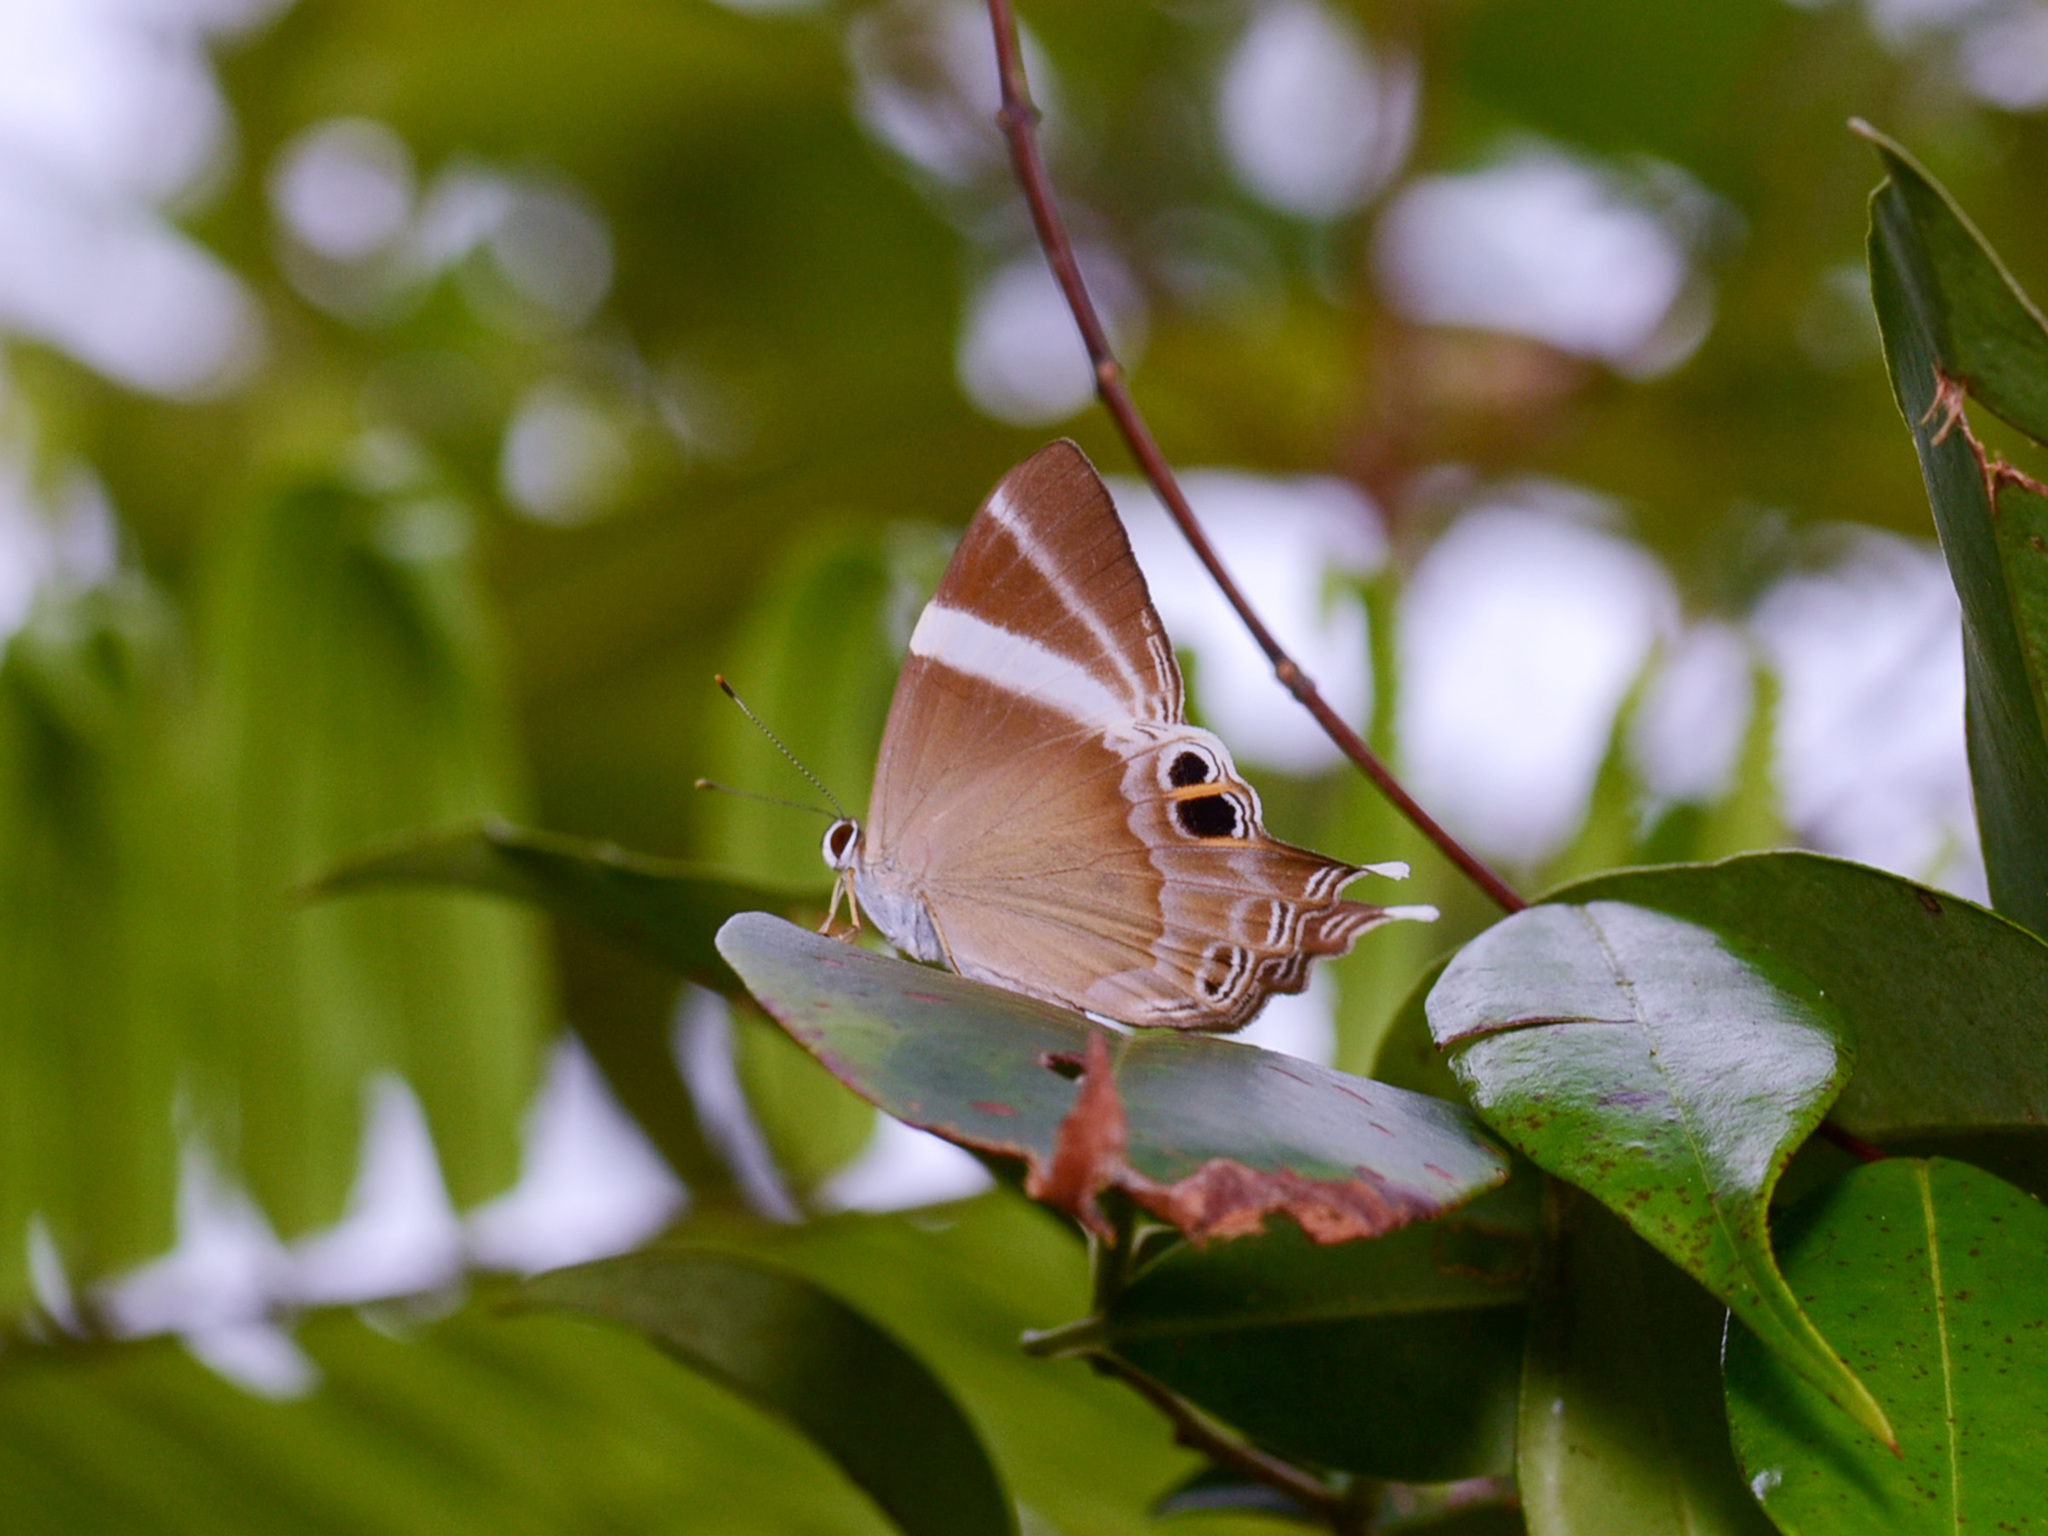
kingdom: Animalia
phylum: Arthropoda
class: Insecta
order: Lepidoptera
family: Lycaenidae
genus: Abisara
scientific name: Abisara neophron
